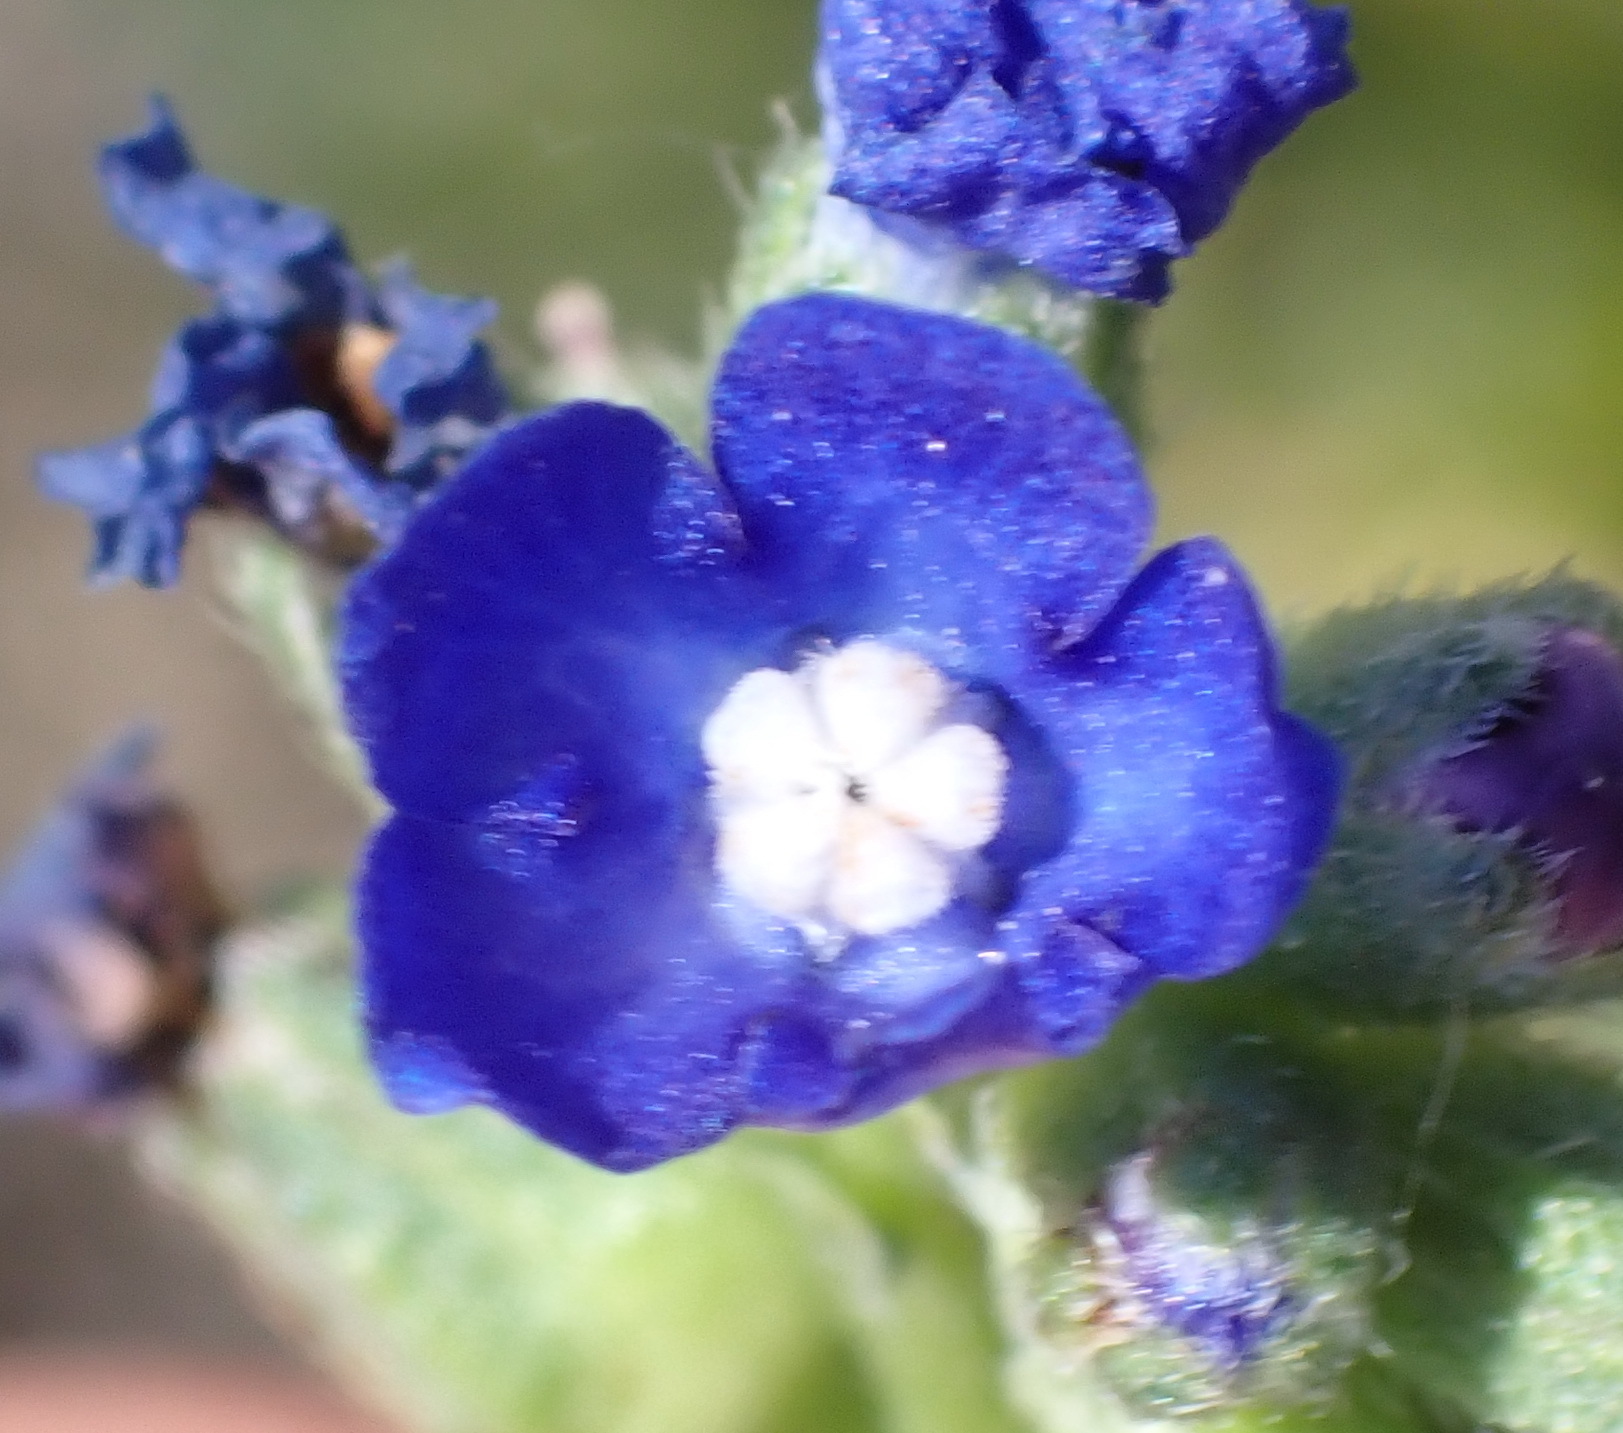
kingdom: Plantae
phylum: Tracheophyta
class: Magnoliopsida
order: Boraginales
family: Boraginaceae
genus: Anchusa
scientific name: Anchusa capensis
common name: Cape bugloss
